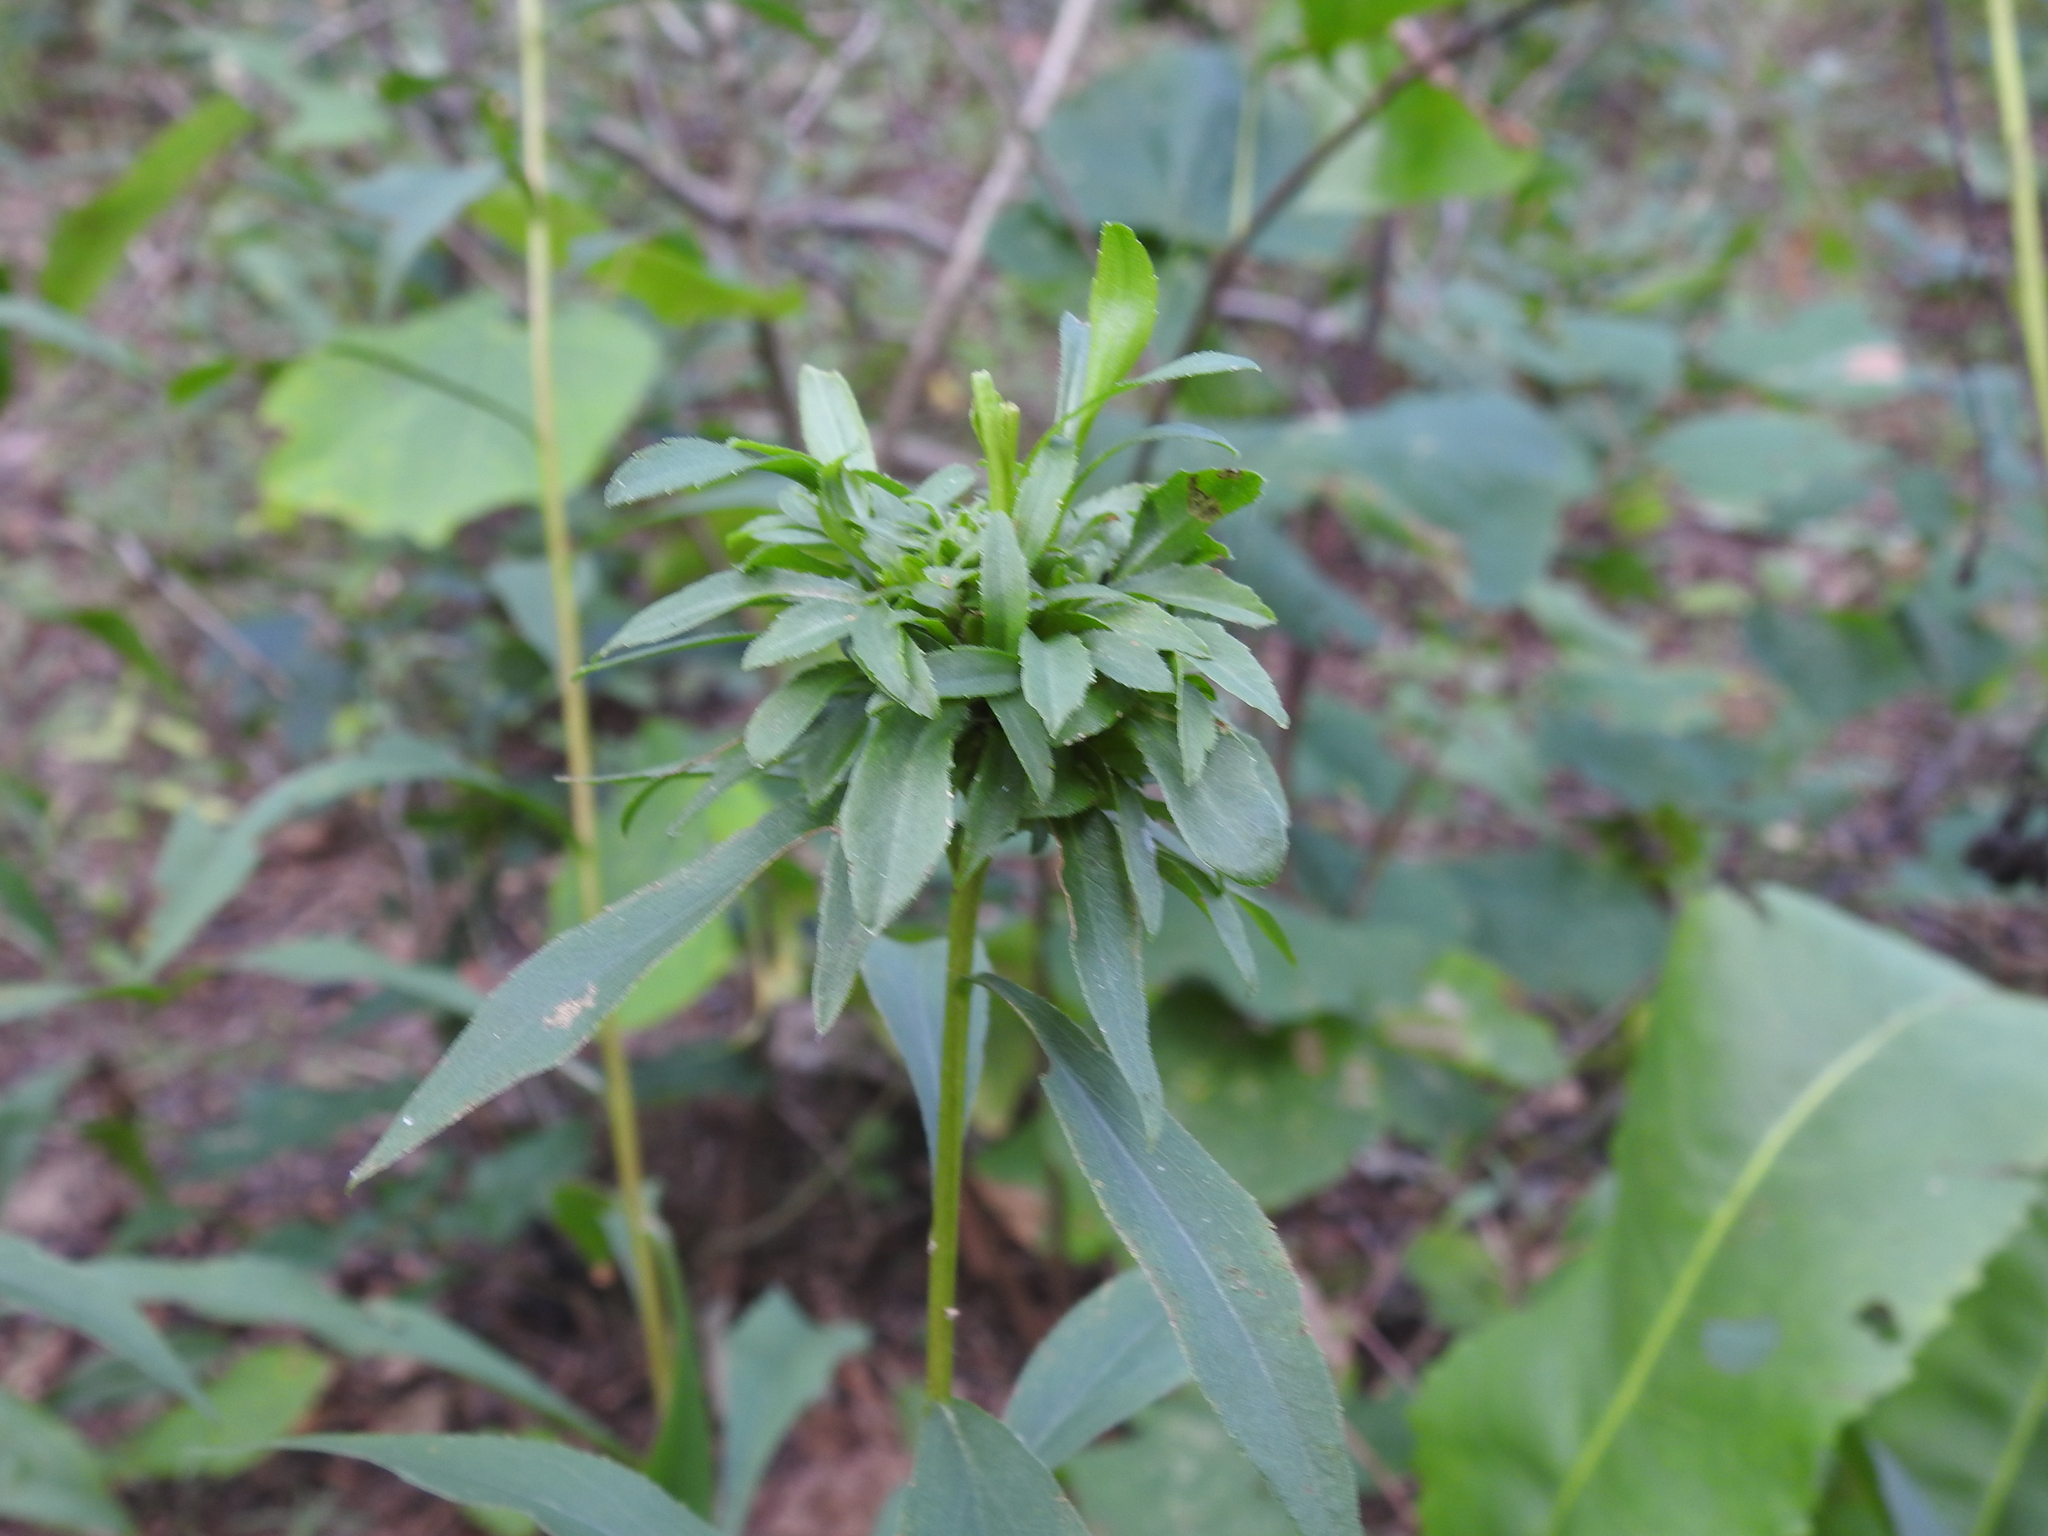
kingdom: Animalia
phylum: Arthropoda
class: Insecta
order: Diptera
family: Cecidomyiidae
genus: Asphondylia
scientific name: Asphondylia monacha
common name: Nun midge
